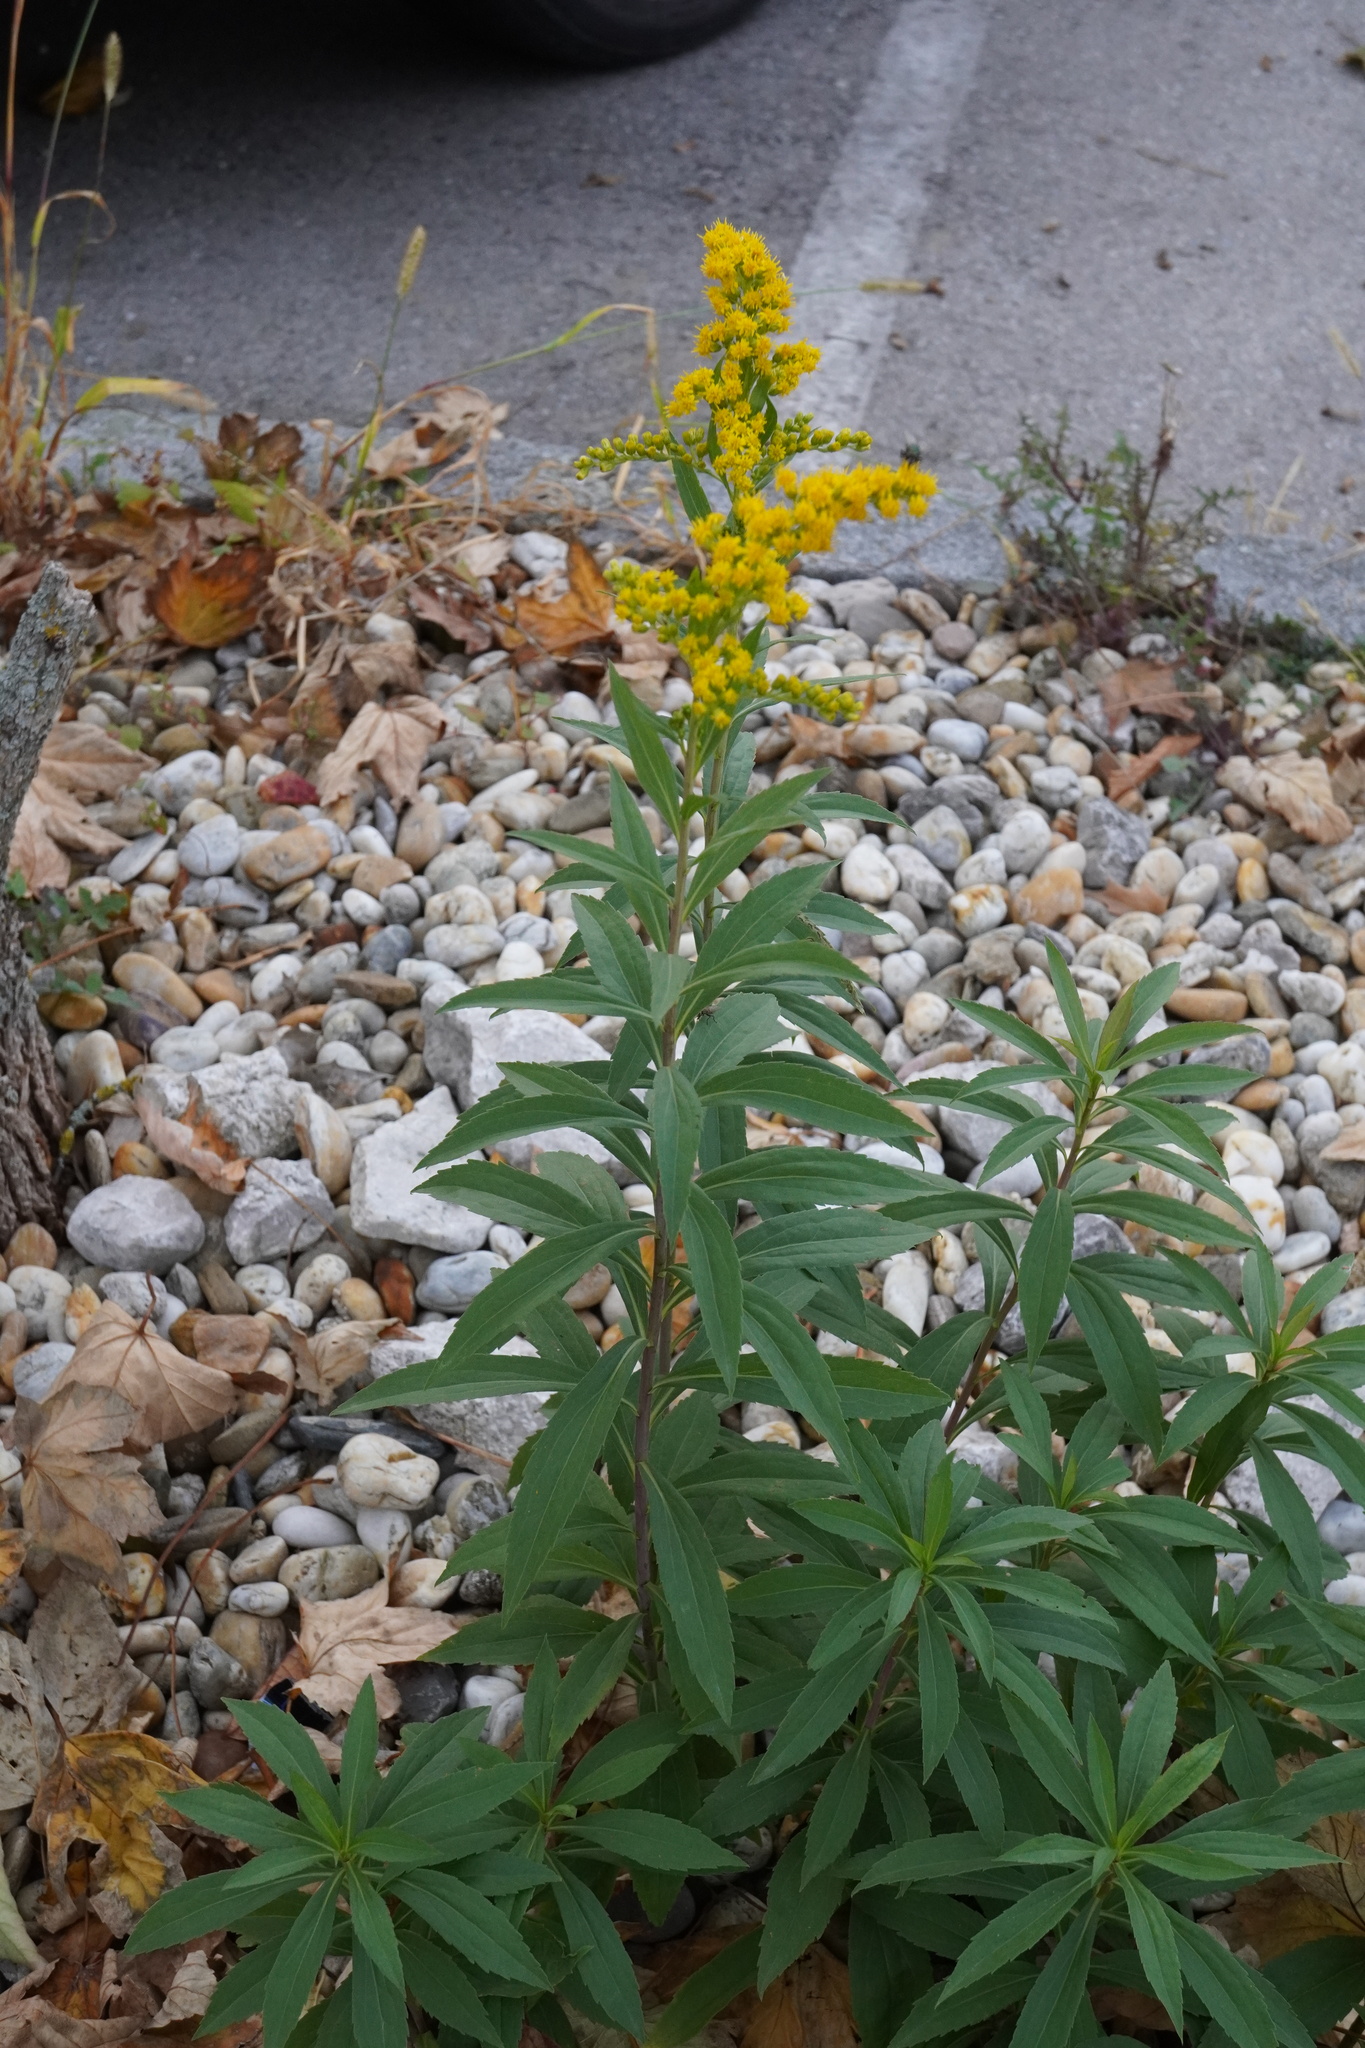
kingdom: Plantae
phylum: Tracheophyta
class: Magnoliopsida
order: Asterales
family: Asteraceae
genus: Solidago
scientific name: Solidago gigantea
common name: Giant goldenrod
